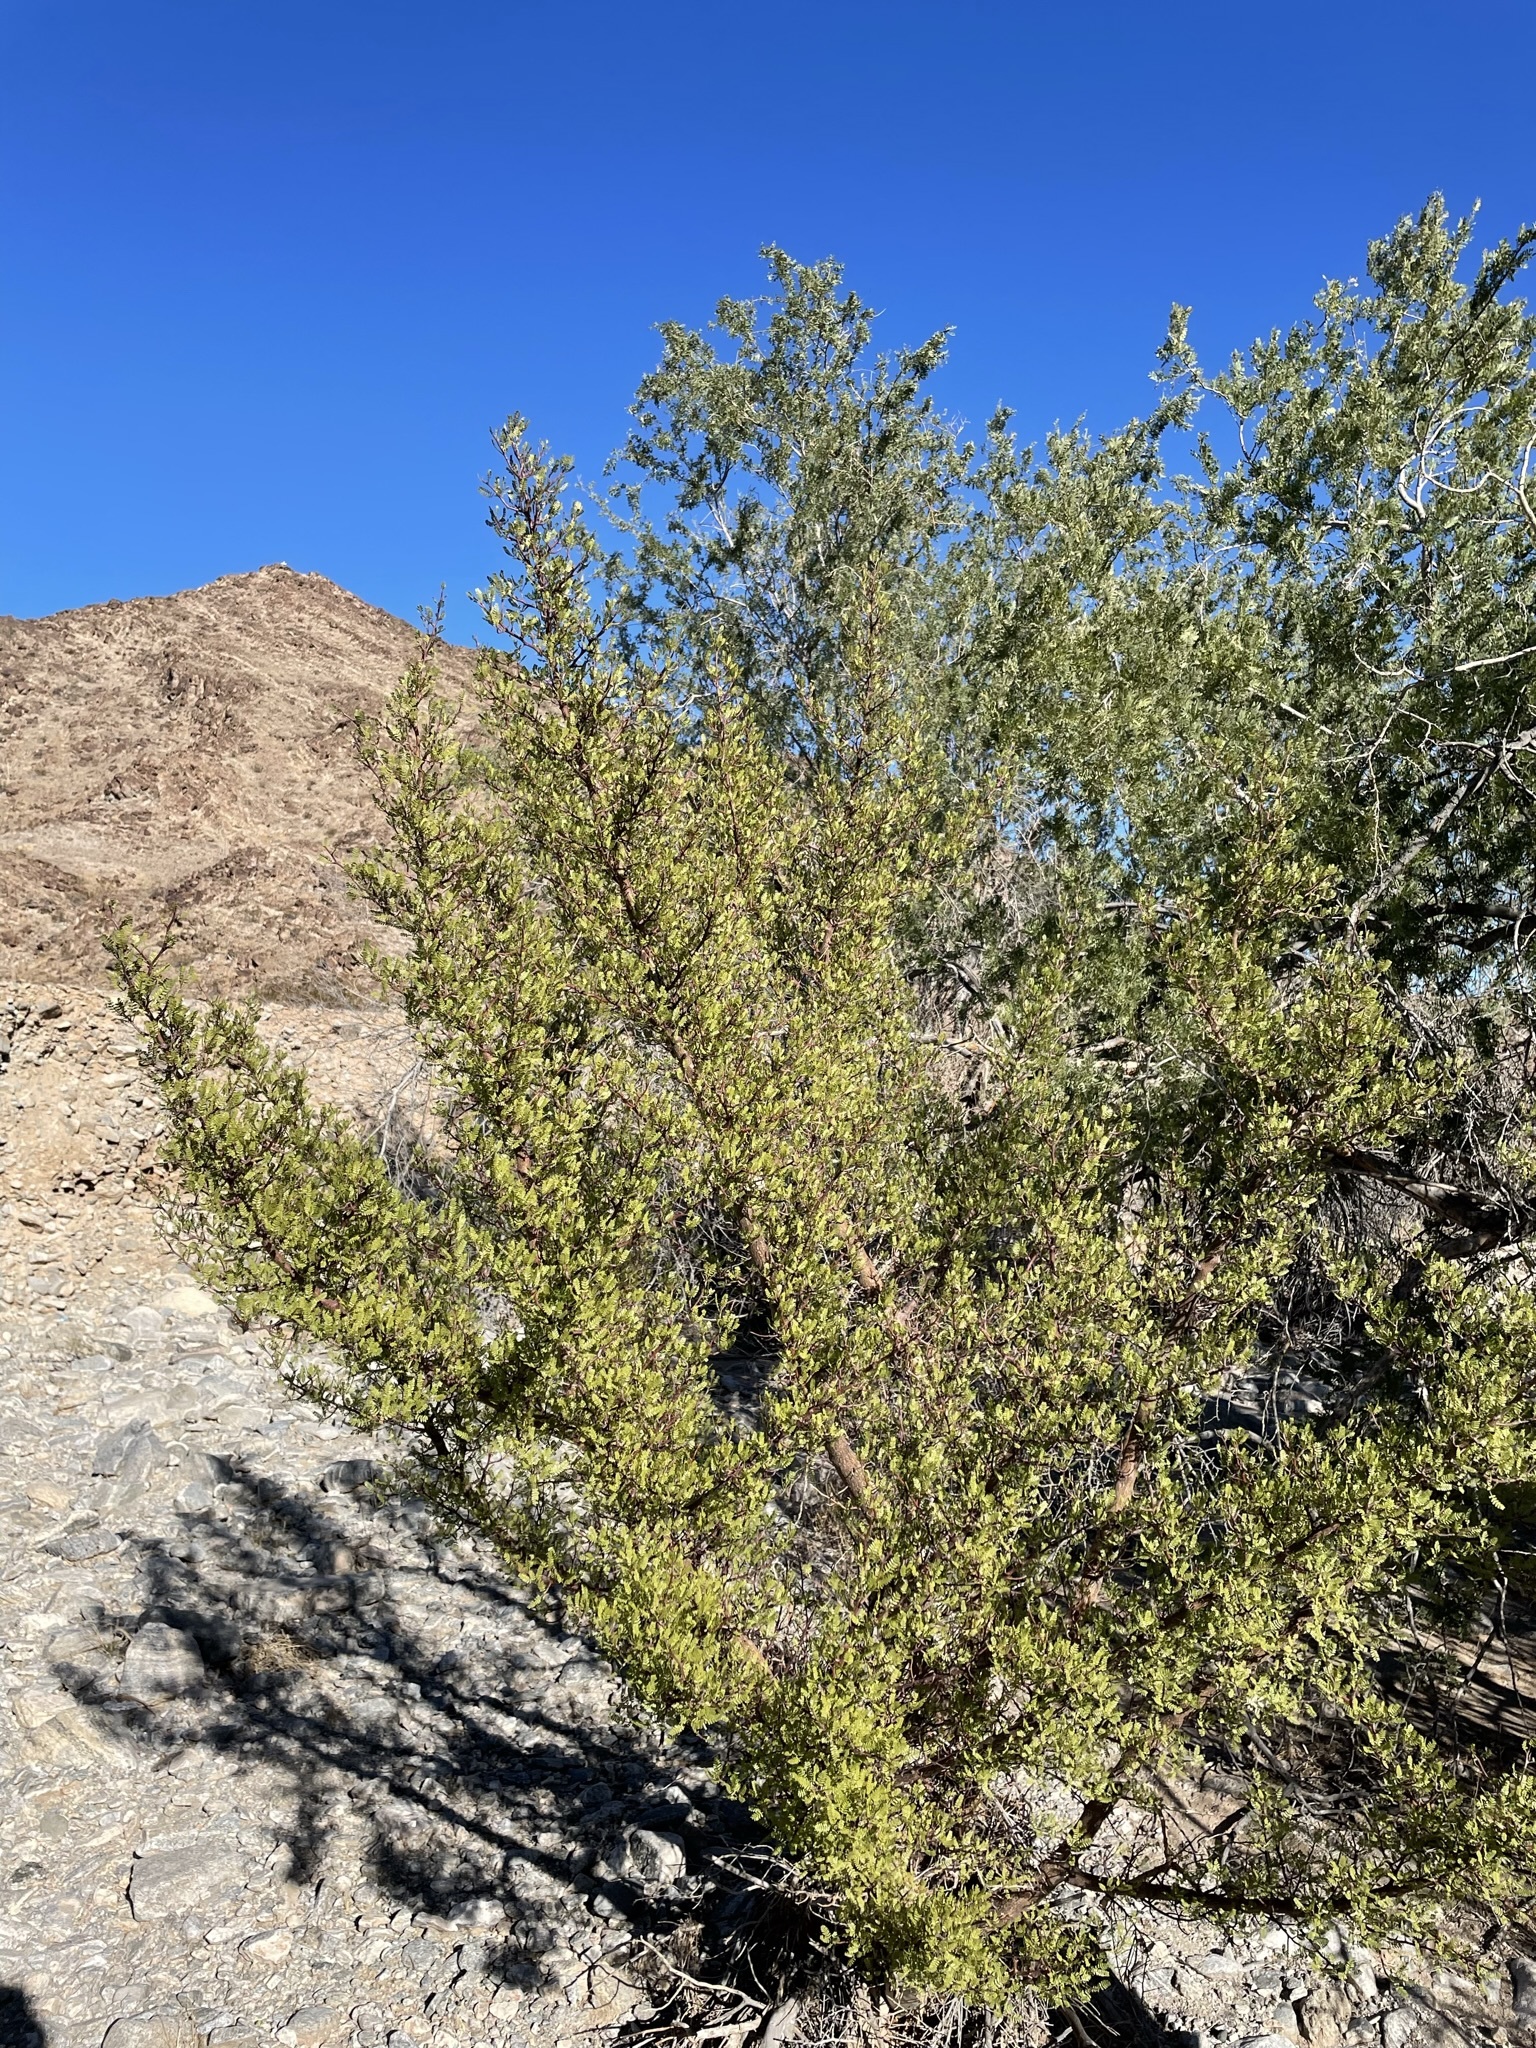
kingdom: Plantae
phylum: Tracheophyta
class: Magnoliopsida
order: Sapindales
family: Burseraceae
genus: Bursera
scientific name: Bursera microphylla
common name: Elephant tree
